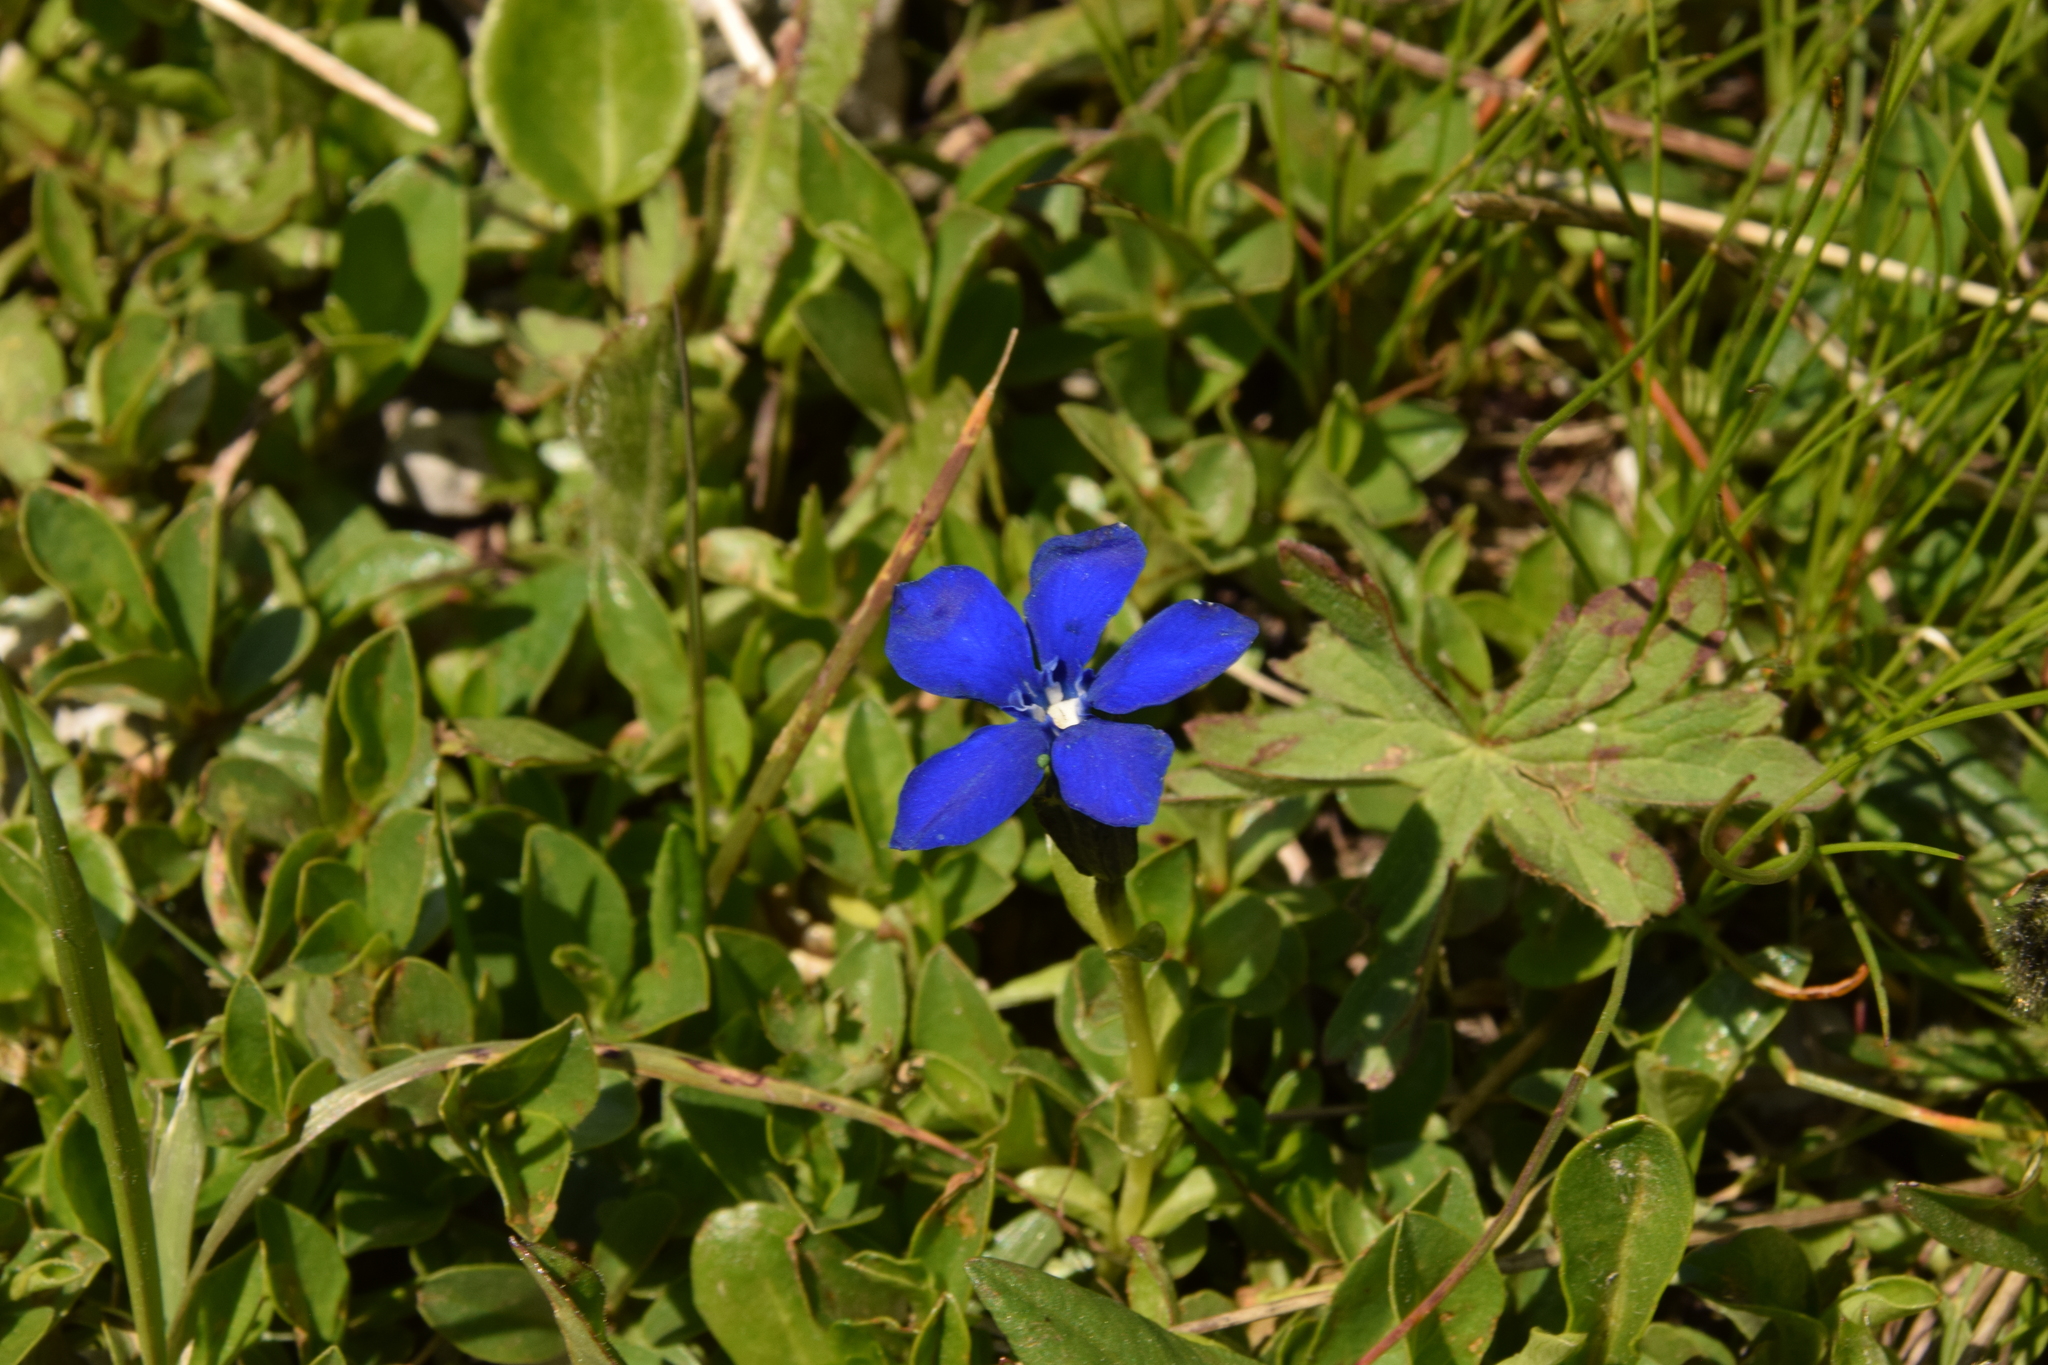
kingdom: Plantae
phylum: Tracheophyta
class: Magnoliopsida
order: Gentianales
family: Gentianaceae
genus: Gentiana
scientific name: Gentiana bavarica
